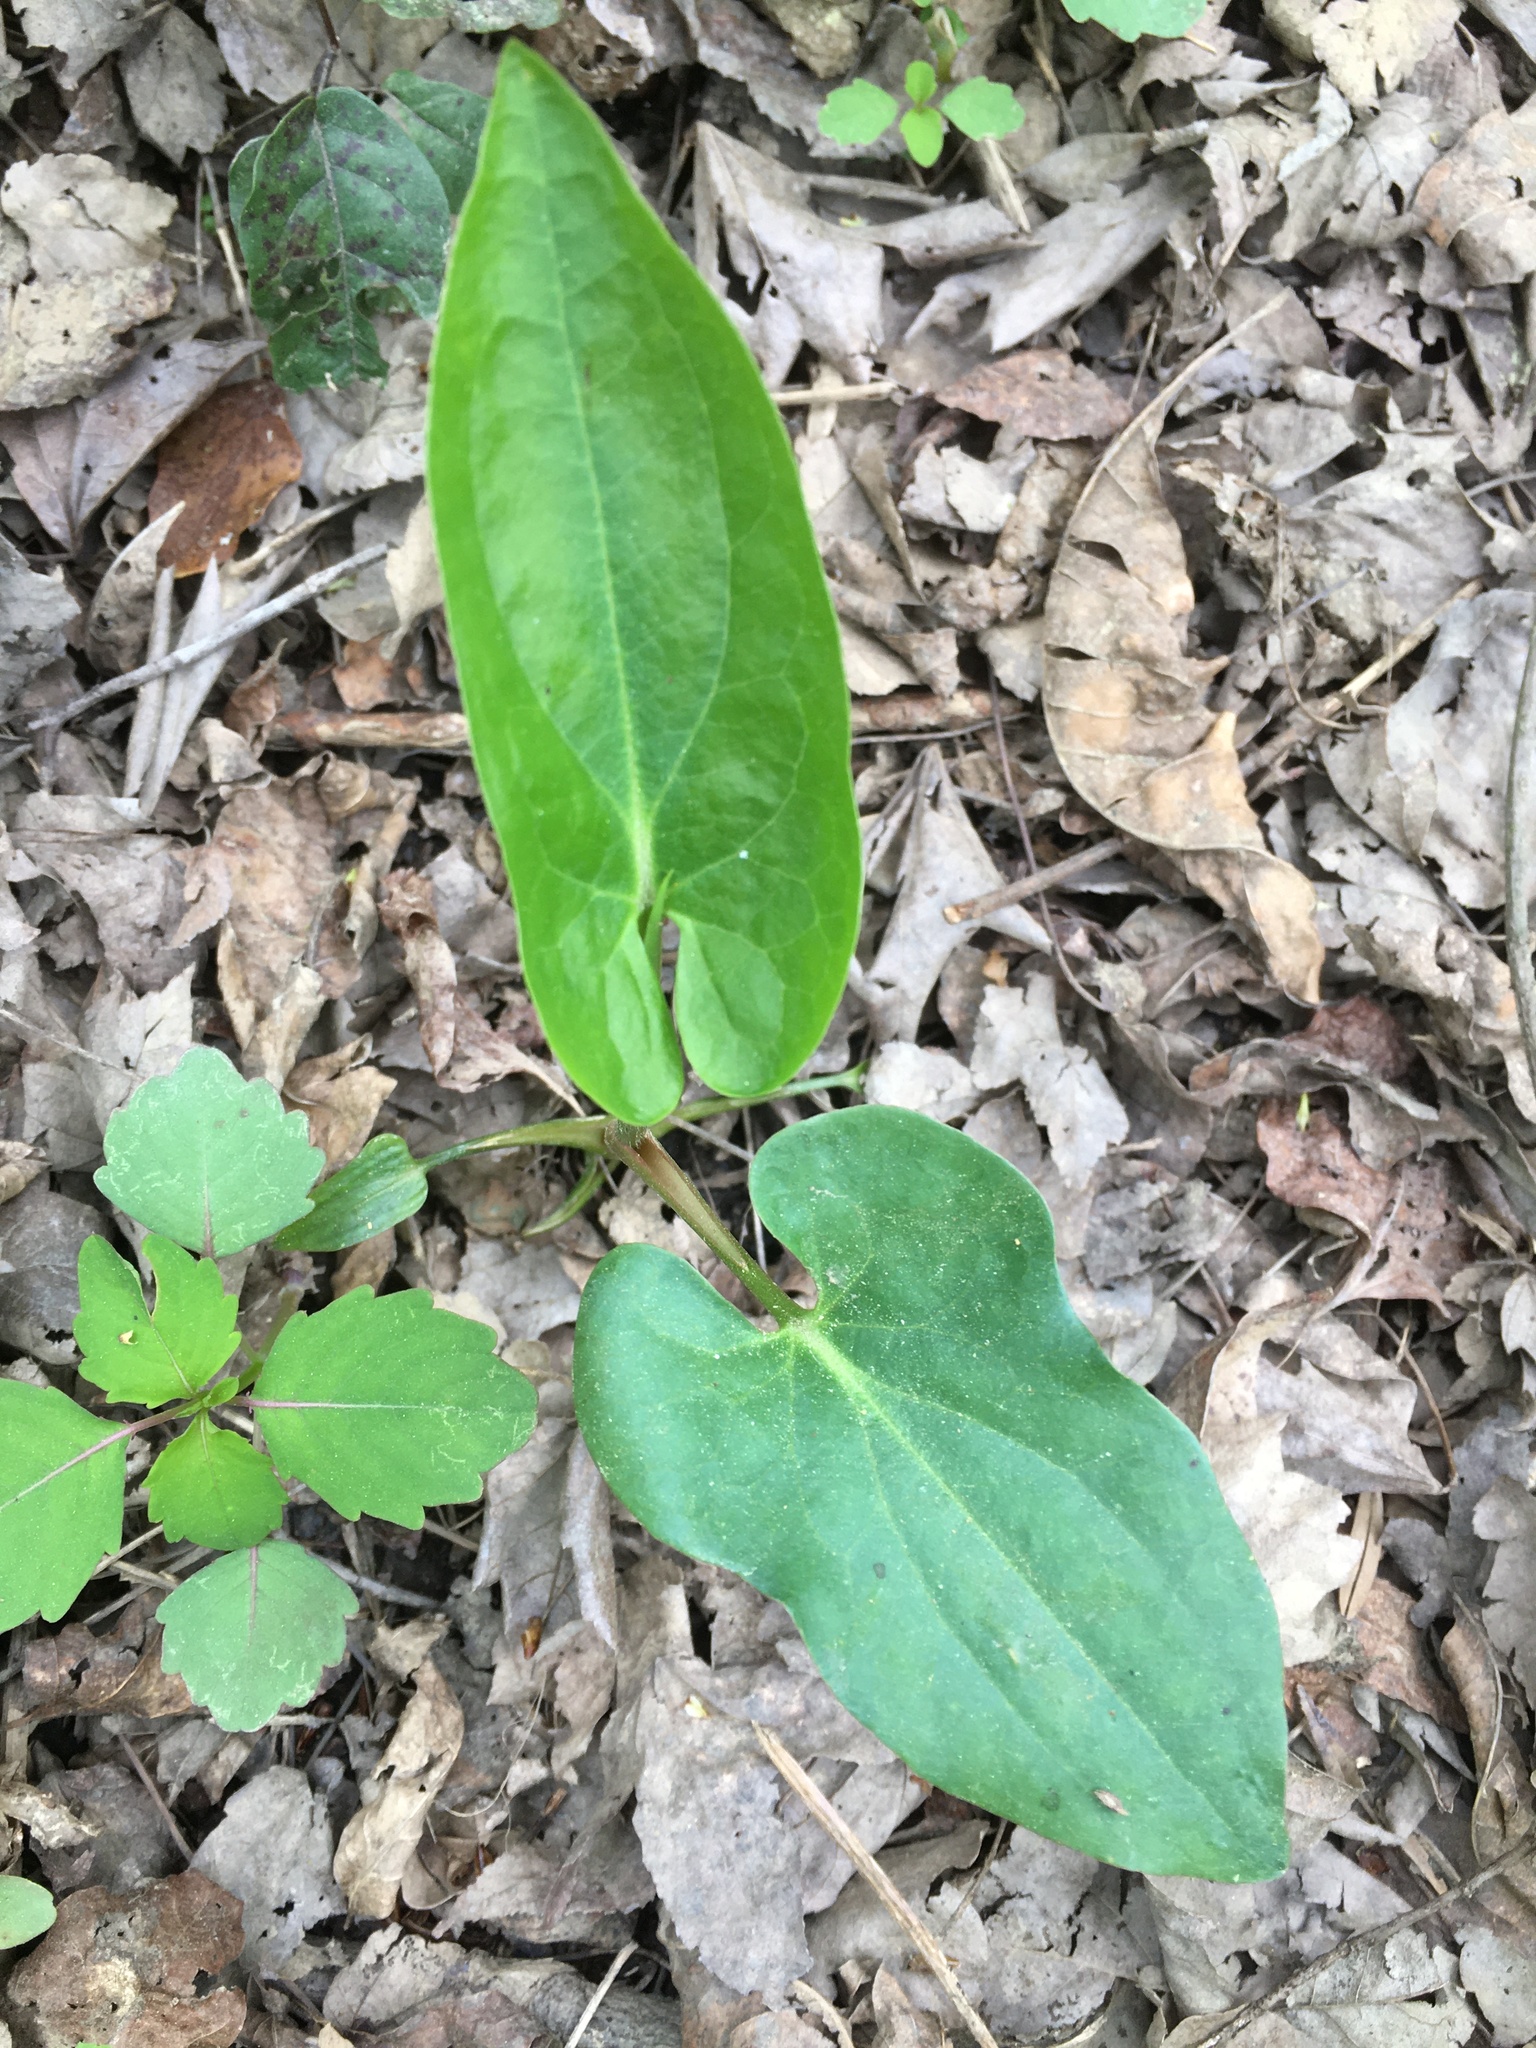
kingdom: Plantae
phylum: Tracheophyta
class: Magnoliopsida
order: Piperales
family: Saururaceae
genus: Saururus
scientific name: Saururus cernuus
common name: Lizard's-tail
